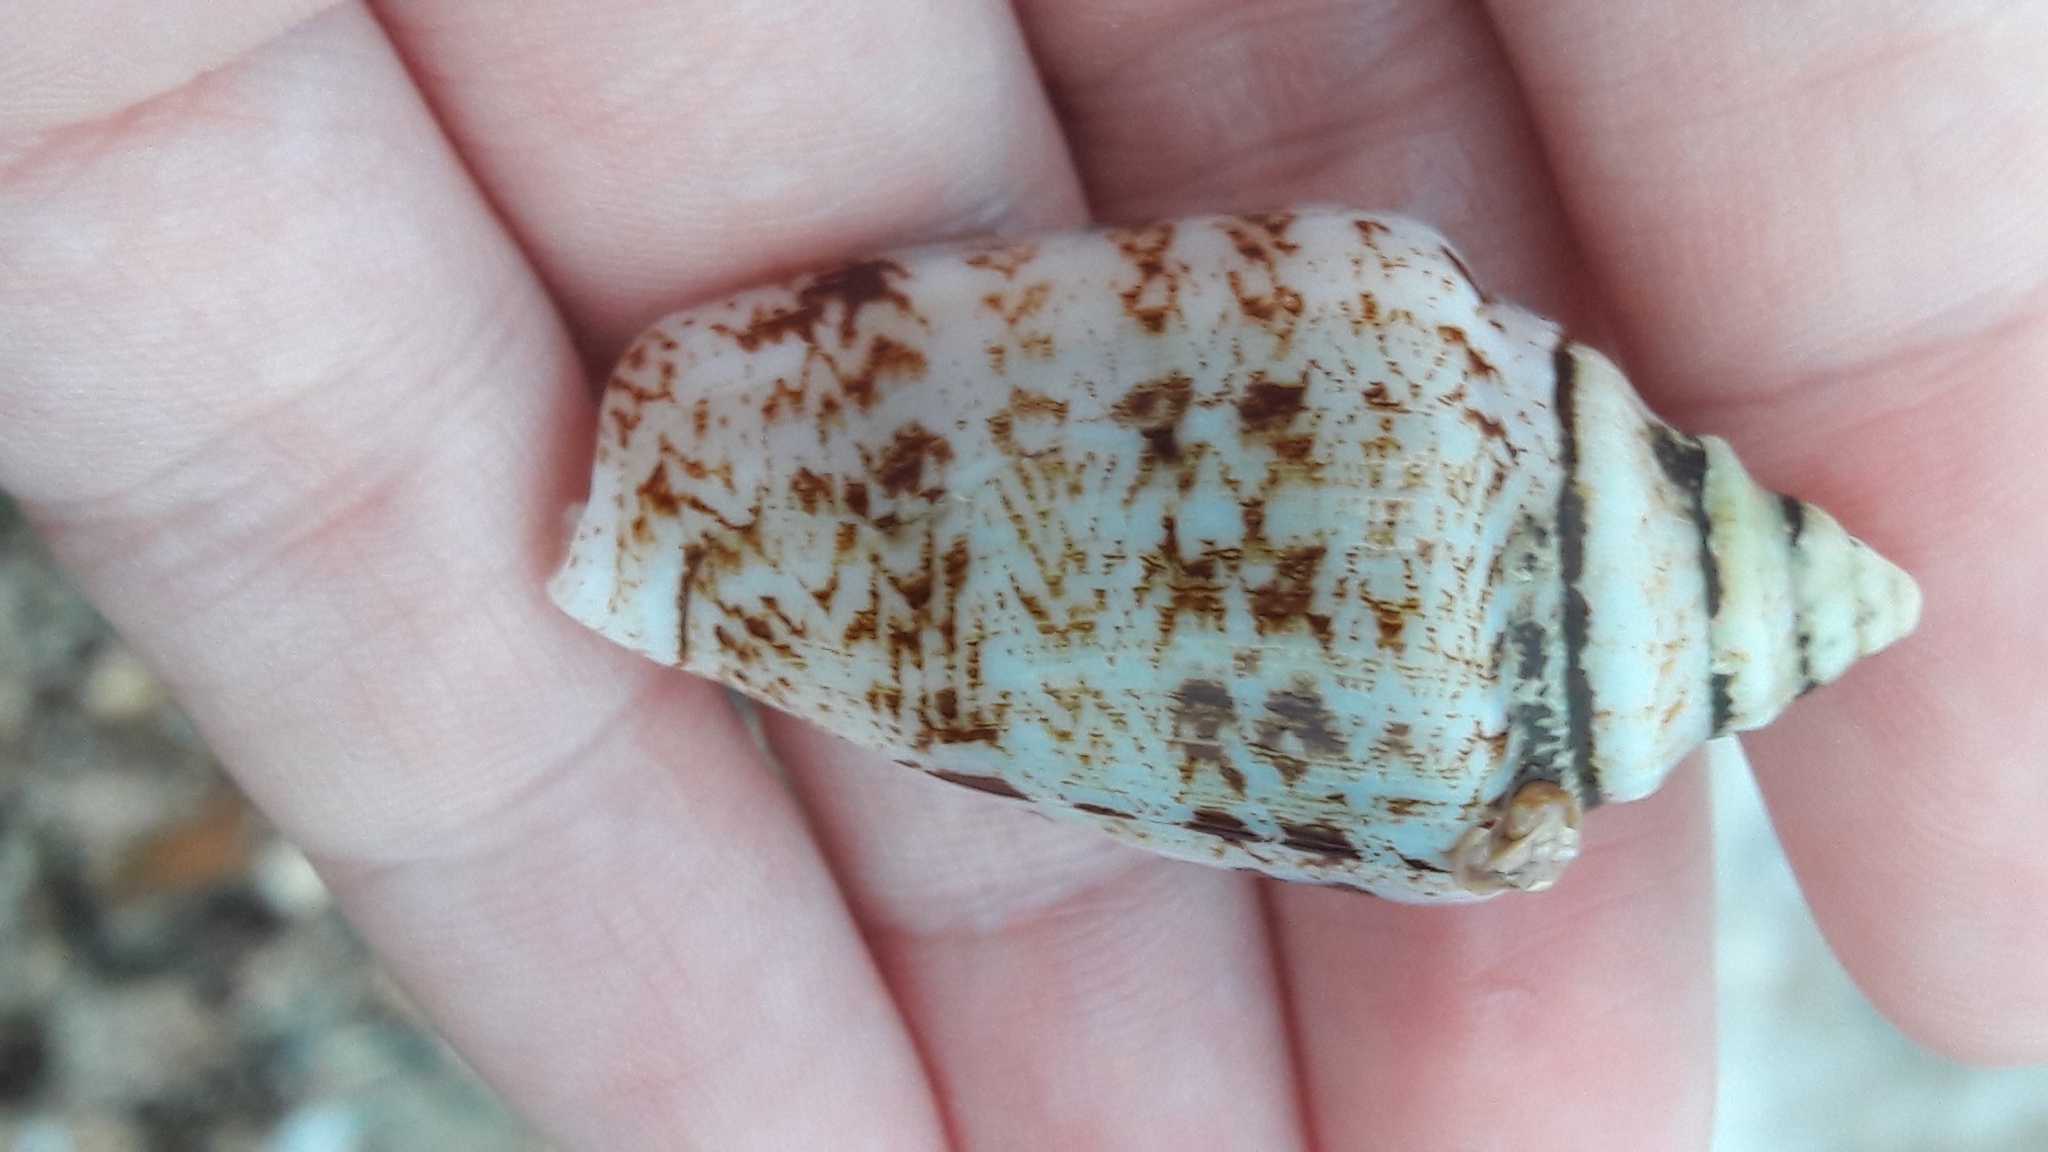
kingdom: Animalia
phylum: Mollusca
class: Gastropoda
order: Littorinimorpha
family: Strombidae
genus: Conomurex
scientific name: Conomurex persicus
